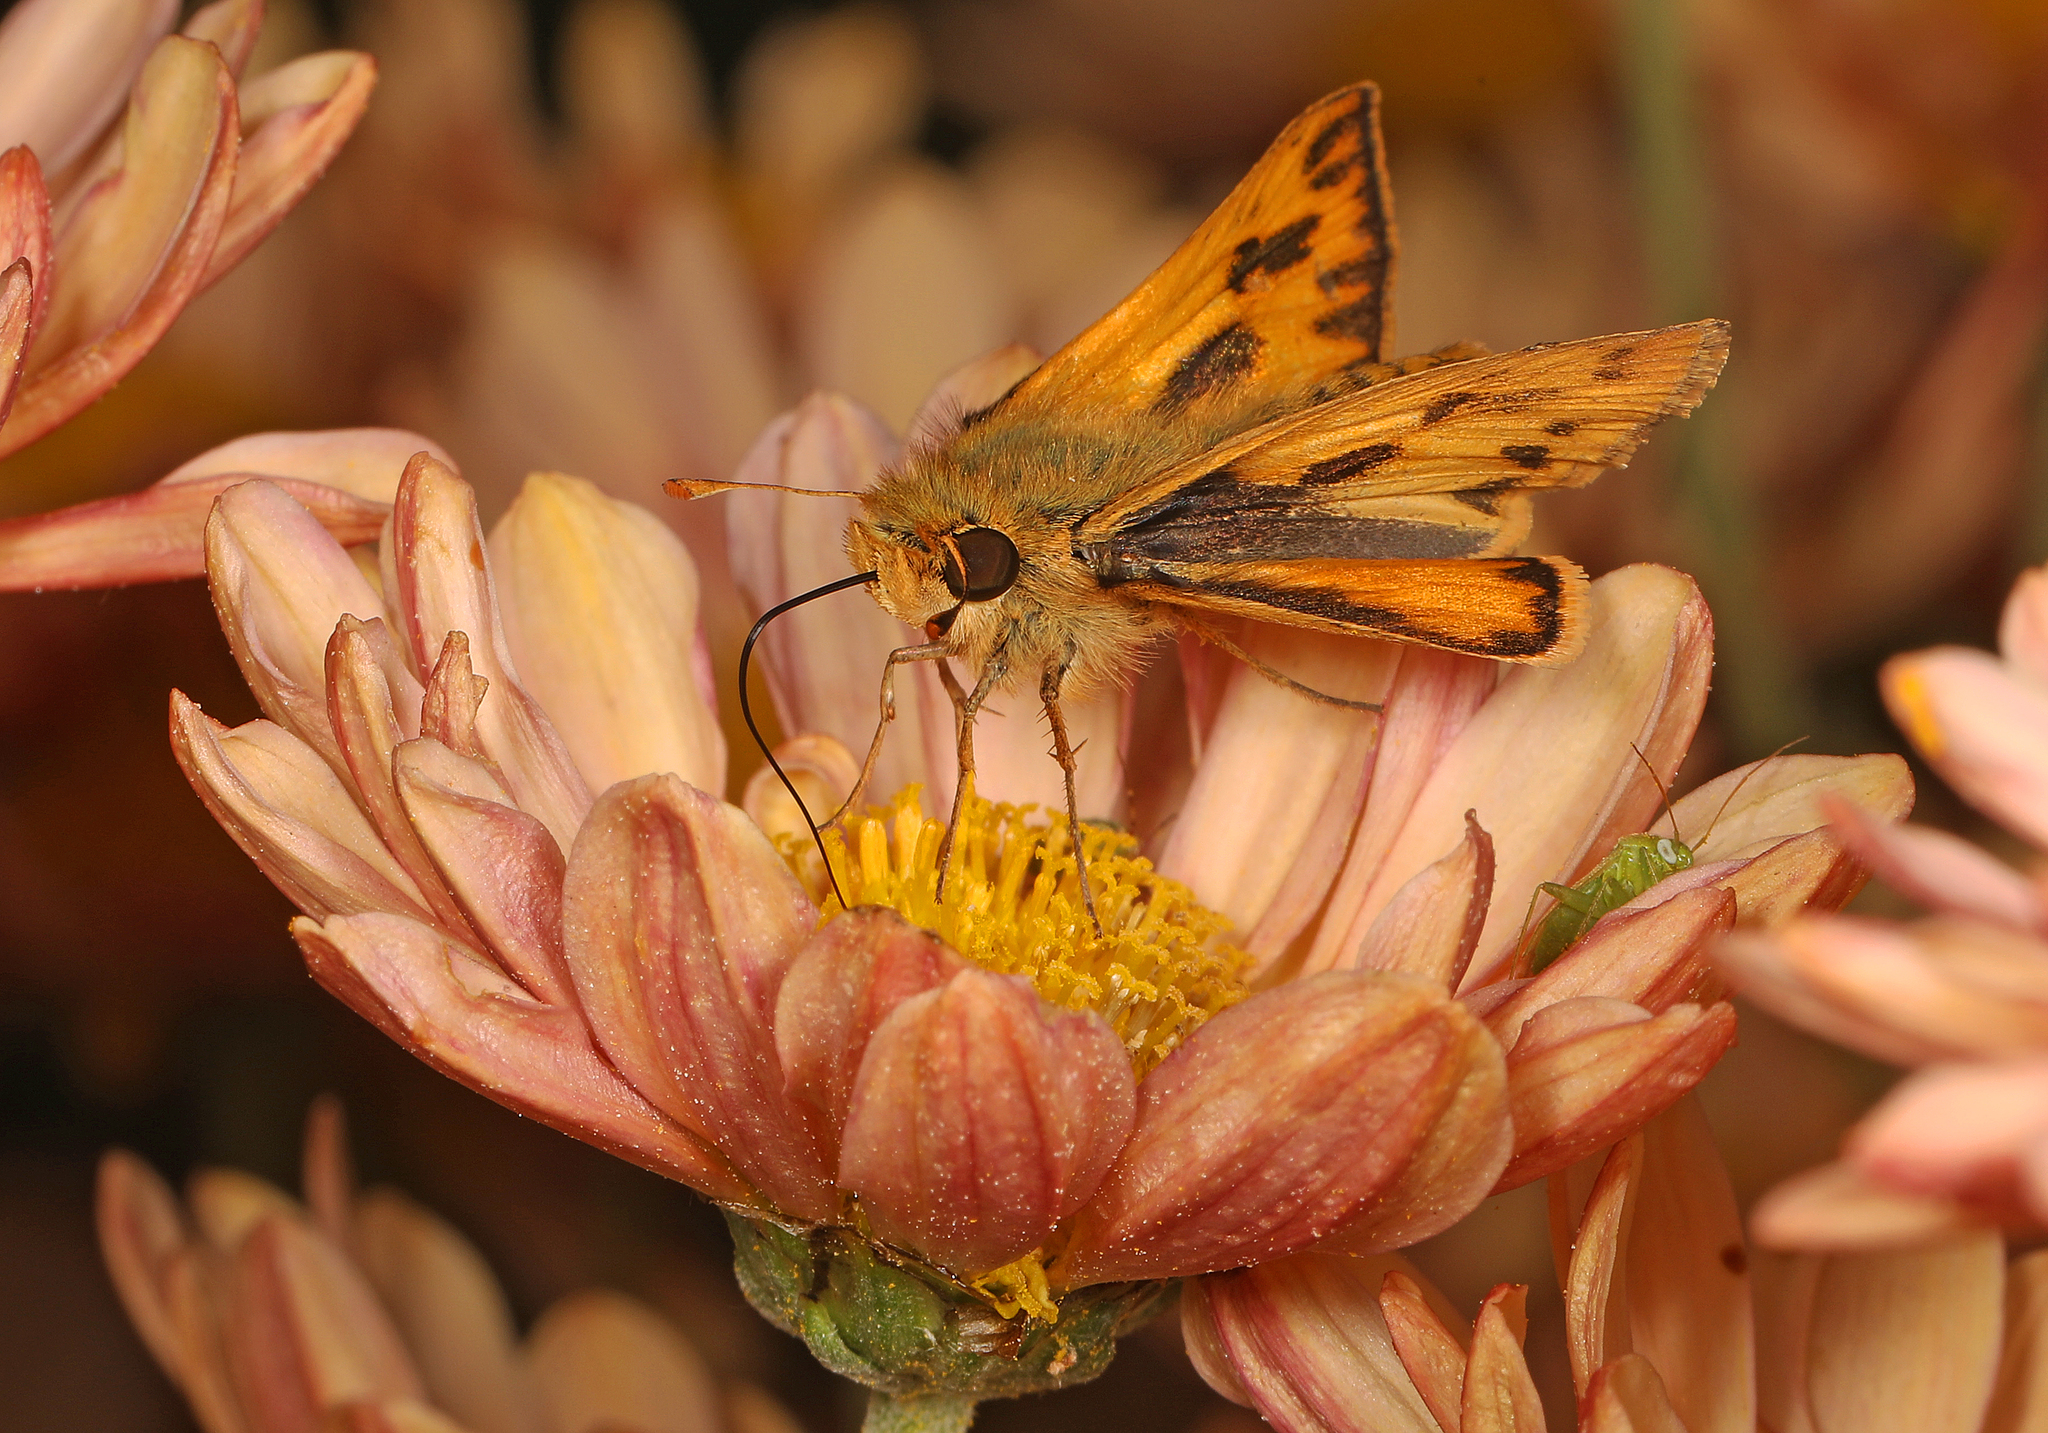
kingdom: Animalia
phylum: Arthropoda
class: Insecta
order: Lepidoptera
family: Hesperiidae
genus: Hylephila
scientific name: Hylephila phyleus
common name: Fiery skipper
